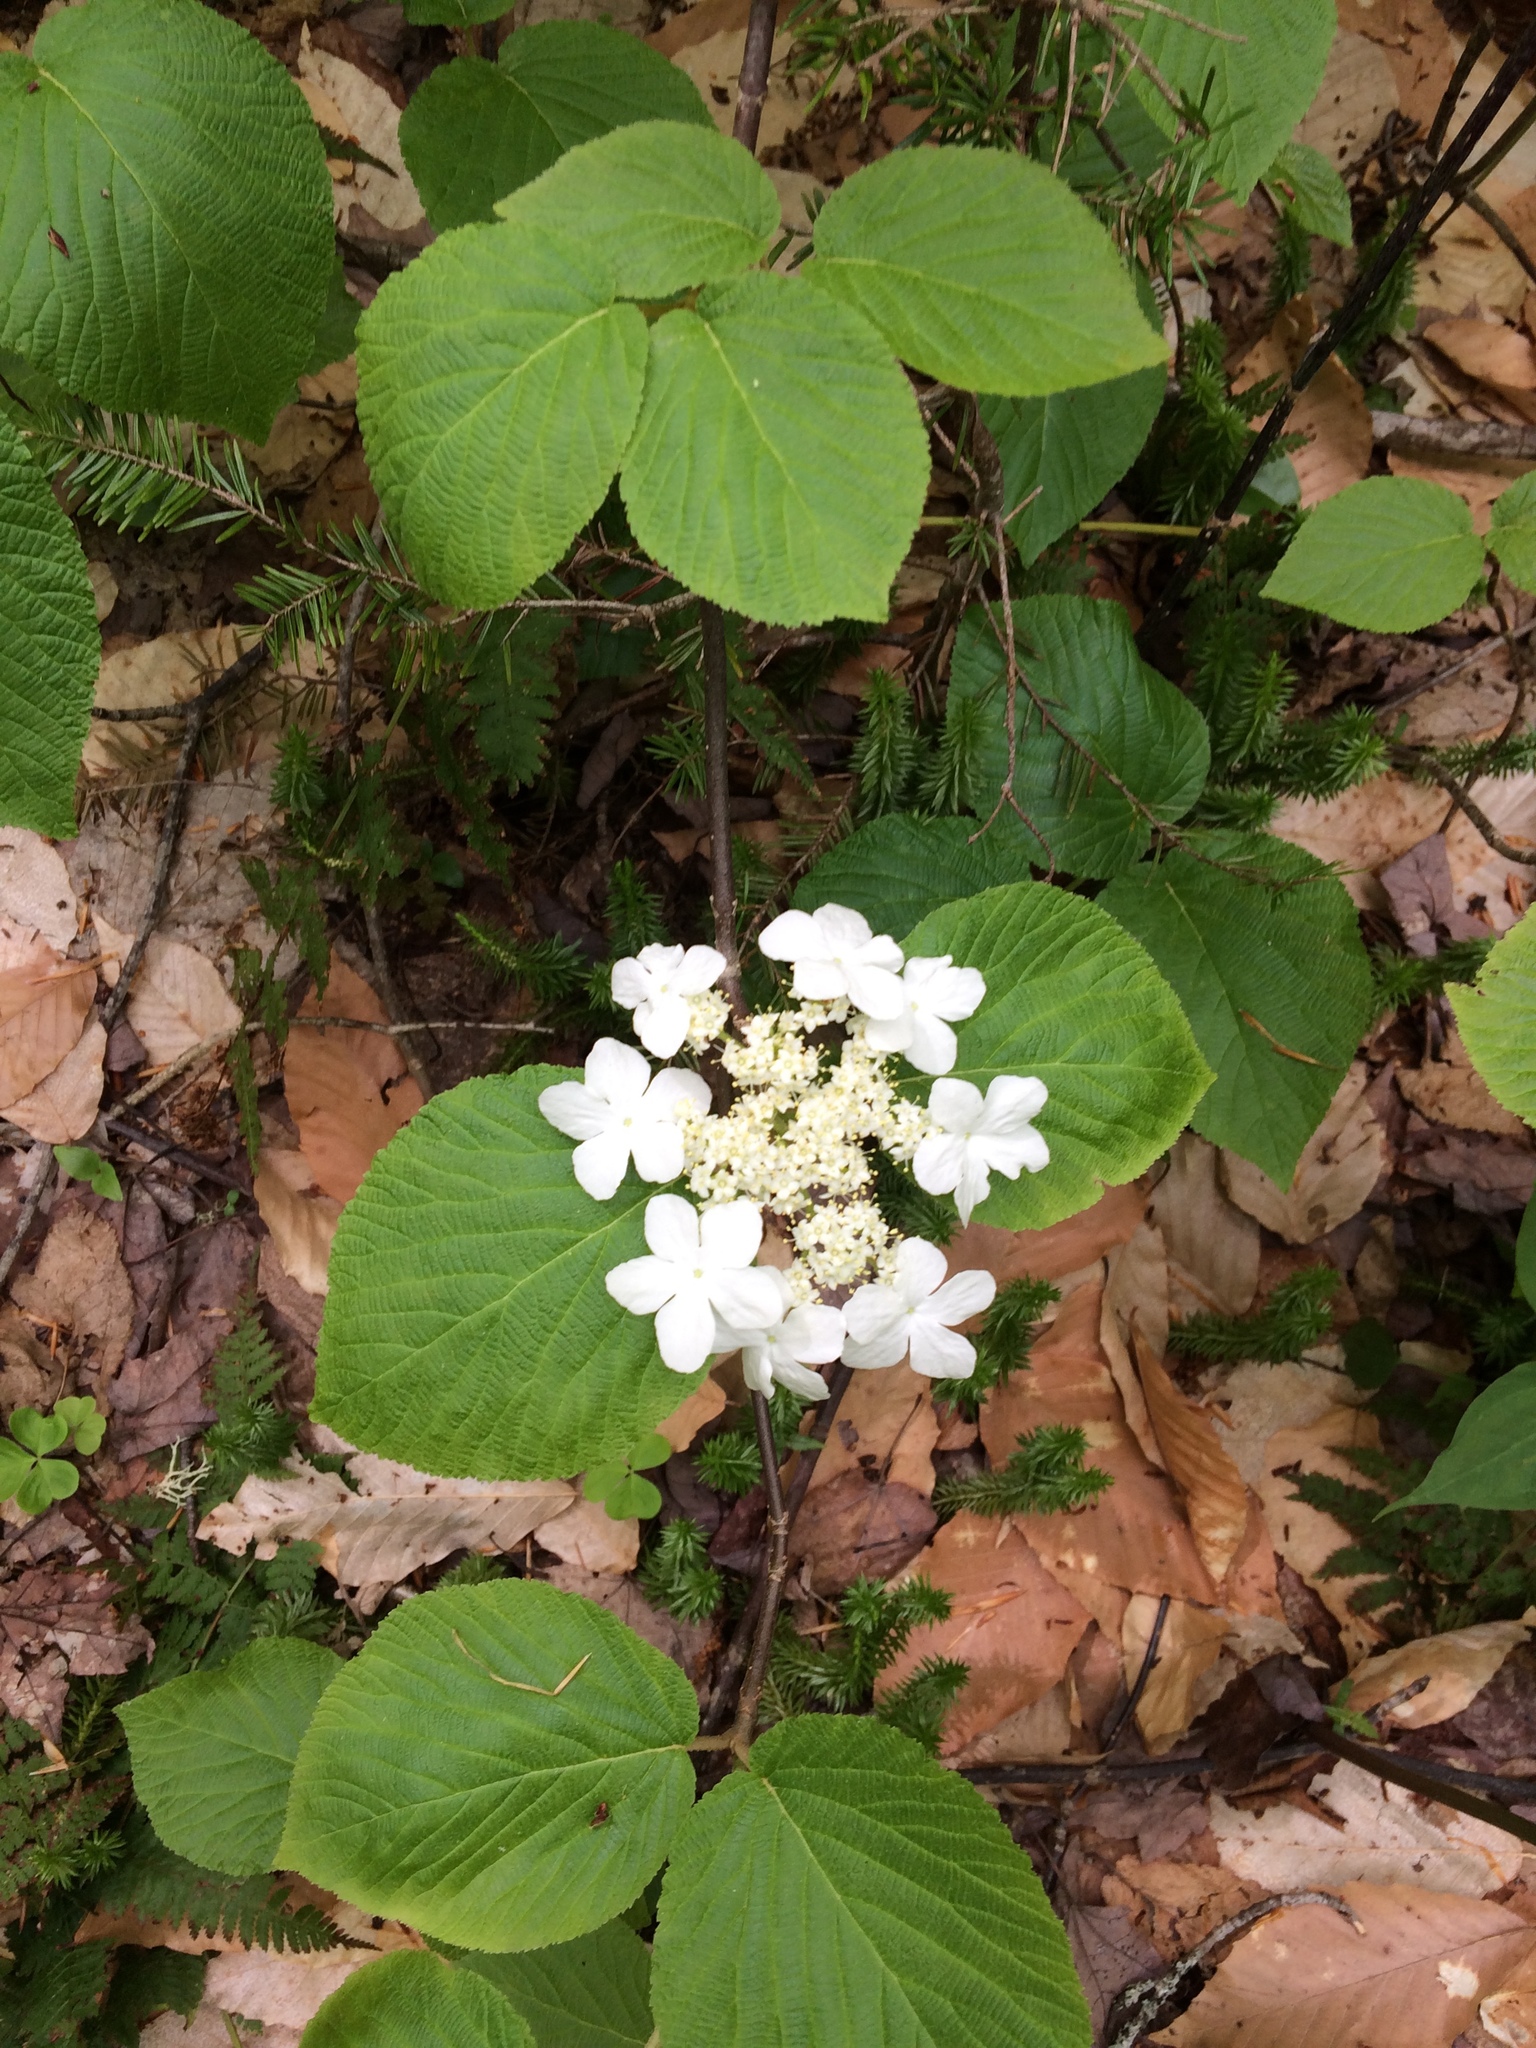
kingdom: Plantae
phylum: Tracheophyta
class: Magnoliopsida
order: Dipsacales
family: Viburnaceae
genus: Viburnum
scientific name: Viburnum lantanoides
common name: Hobblebush
